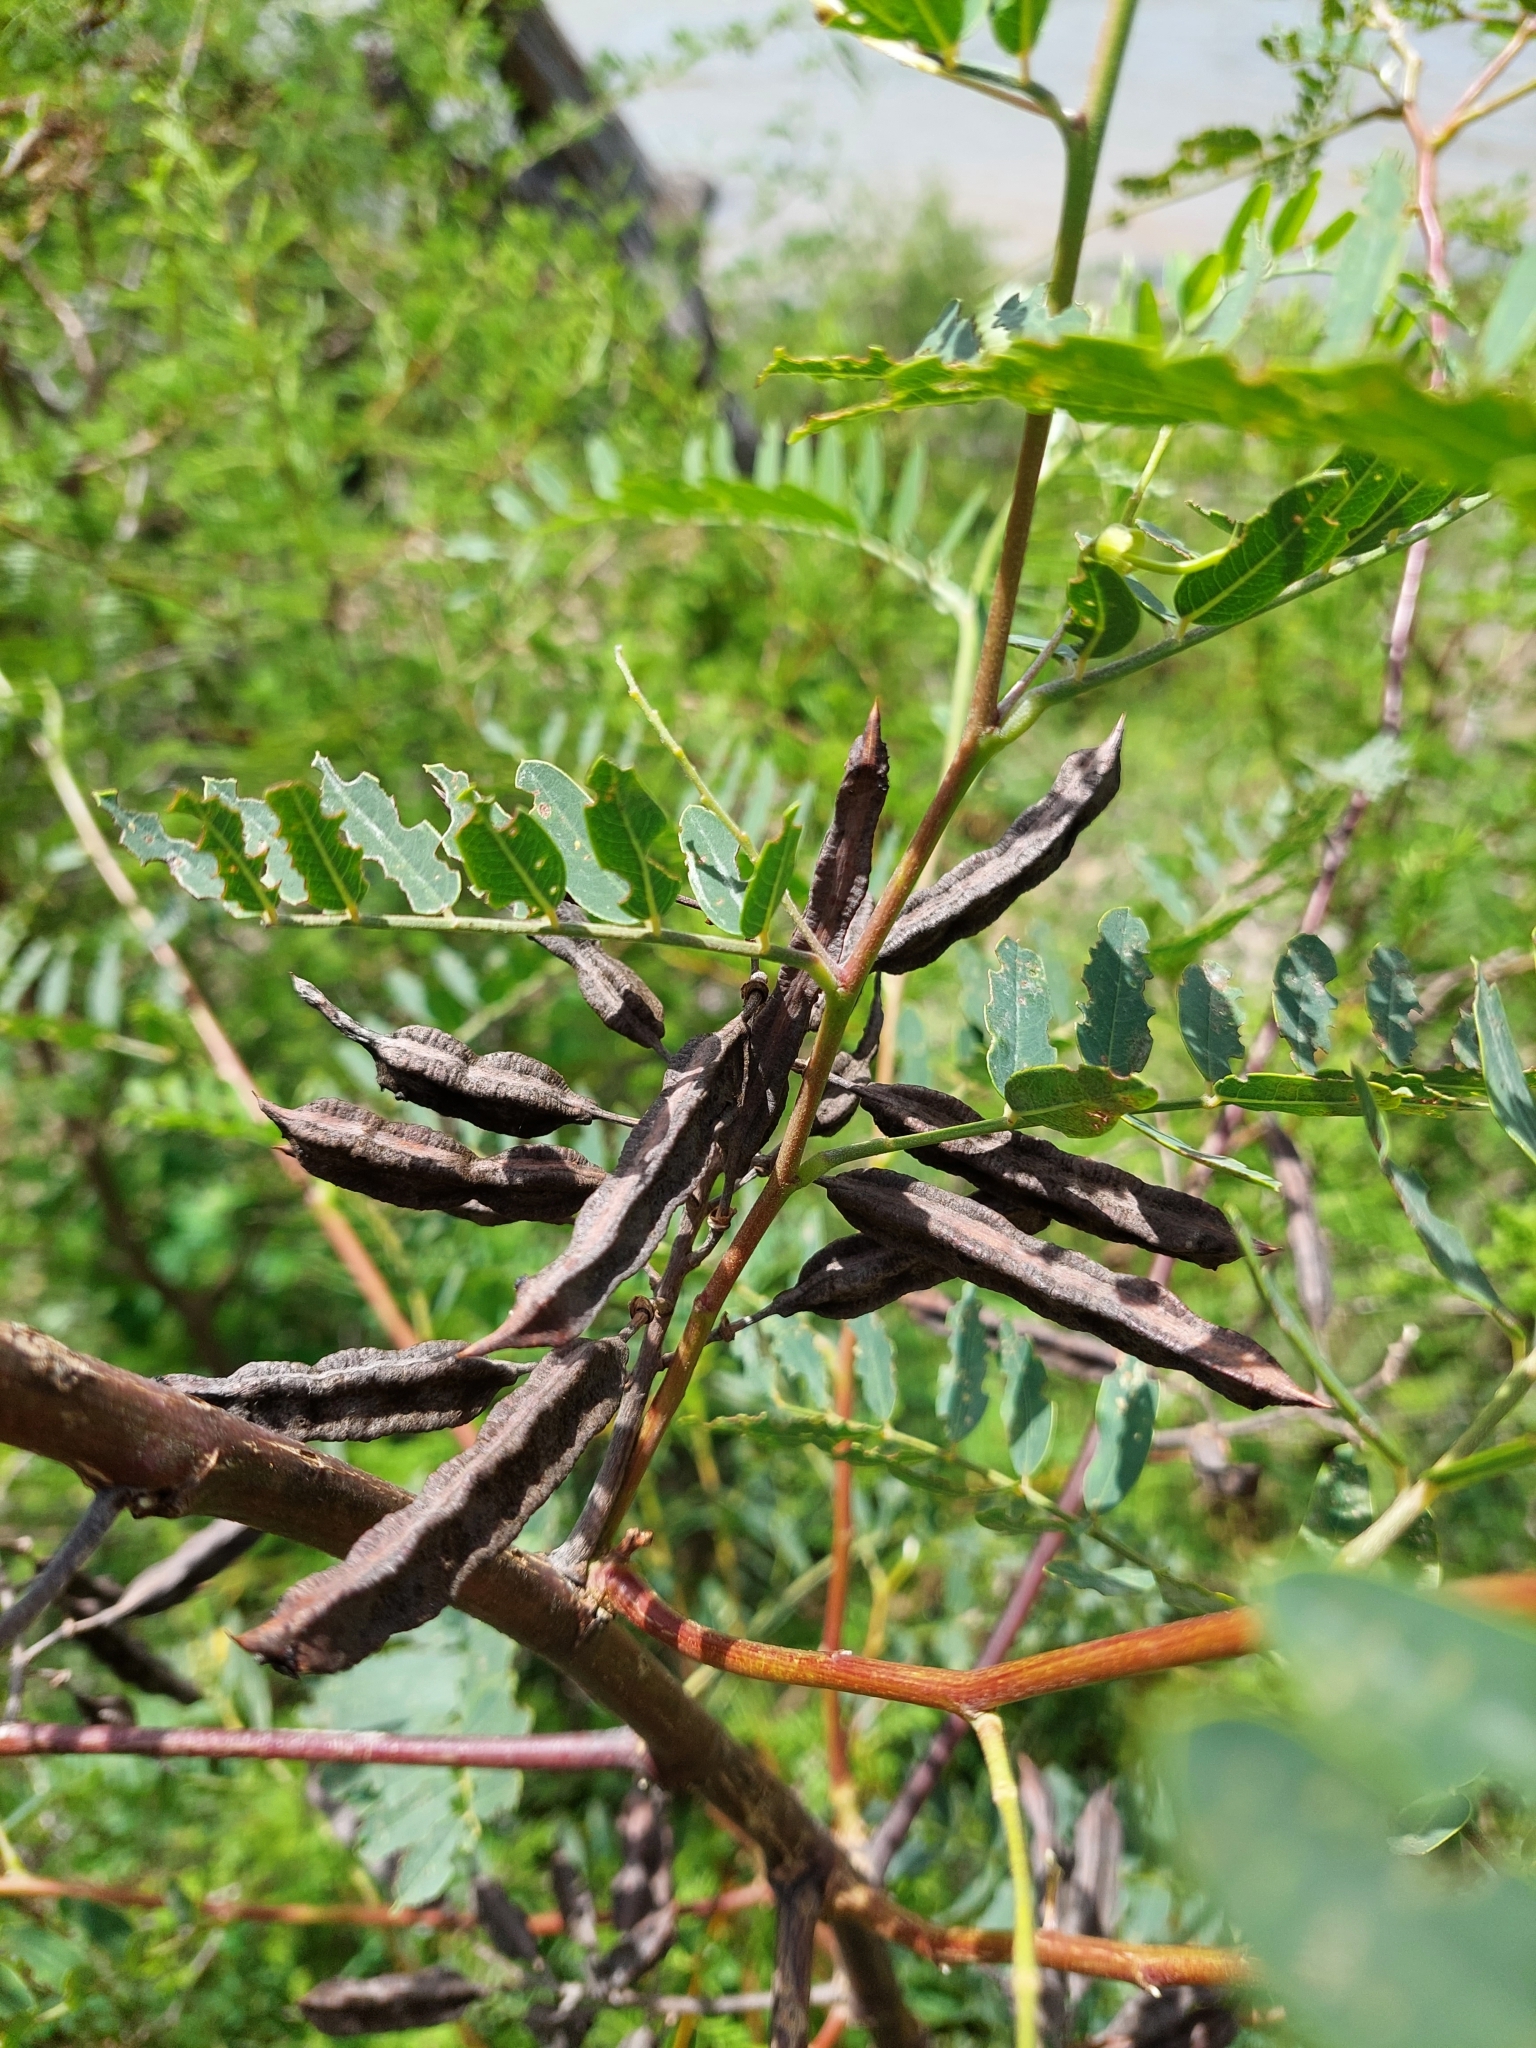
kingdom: Plantae
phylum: Tracheophyta
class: Magnoliopsida
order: Fabales
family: Fabaceae
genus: Sesbania
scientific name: Sesbania virgata
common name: Wand riverhemp
